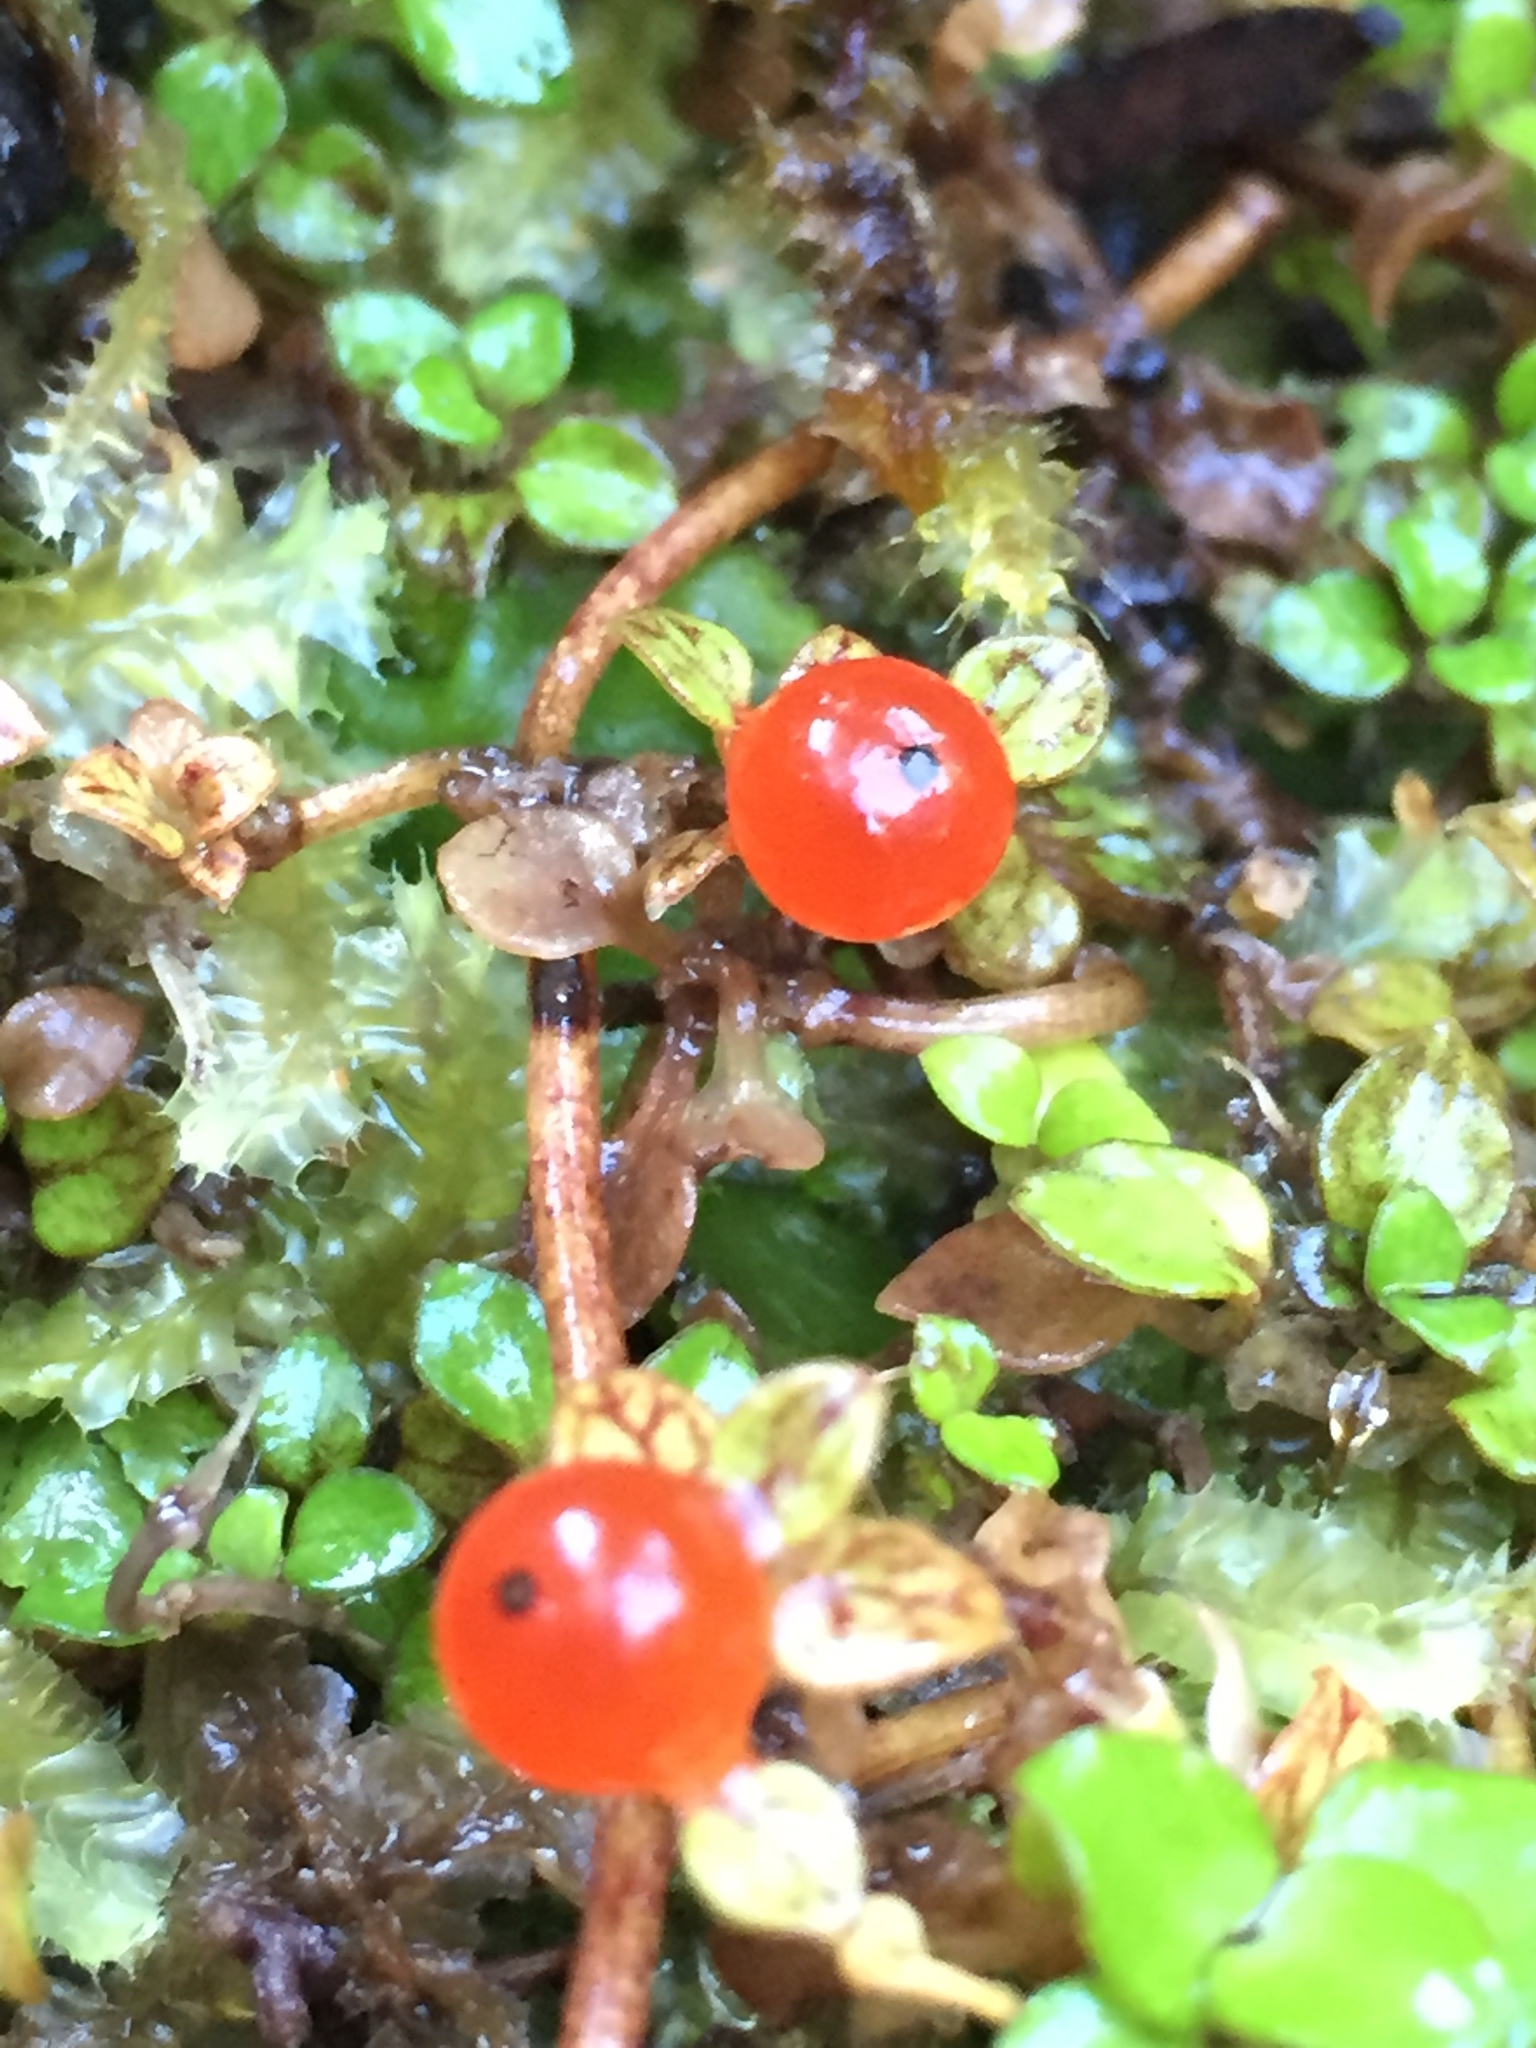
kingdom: Plantae
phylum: Tracheophyta
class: Magnoliopsida
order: Gentianales
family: Rubiaceae
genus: Nertera
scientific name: Nertera granadensis
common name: Beadplant
